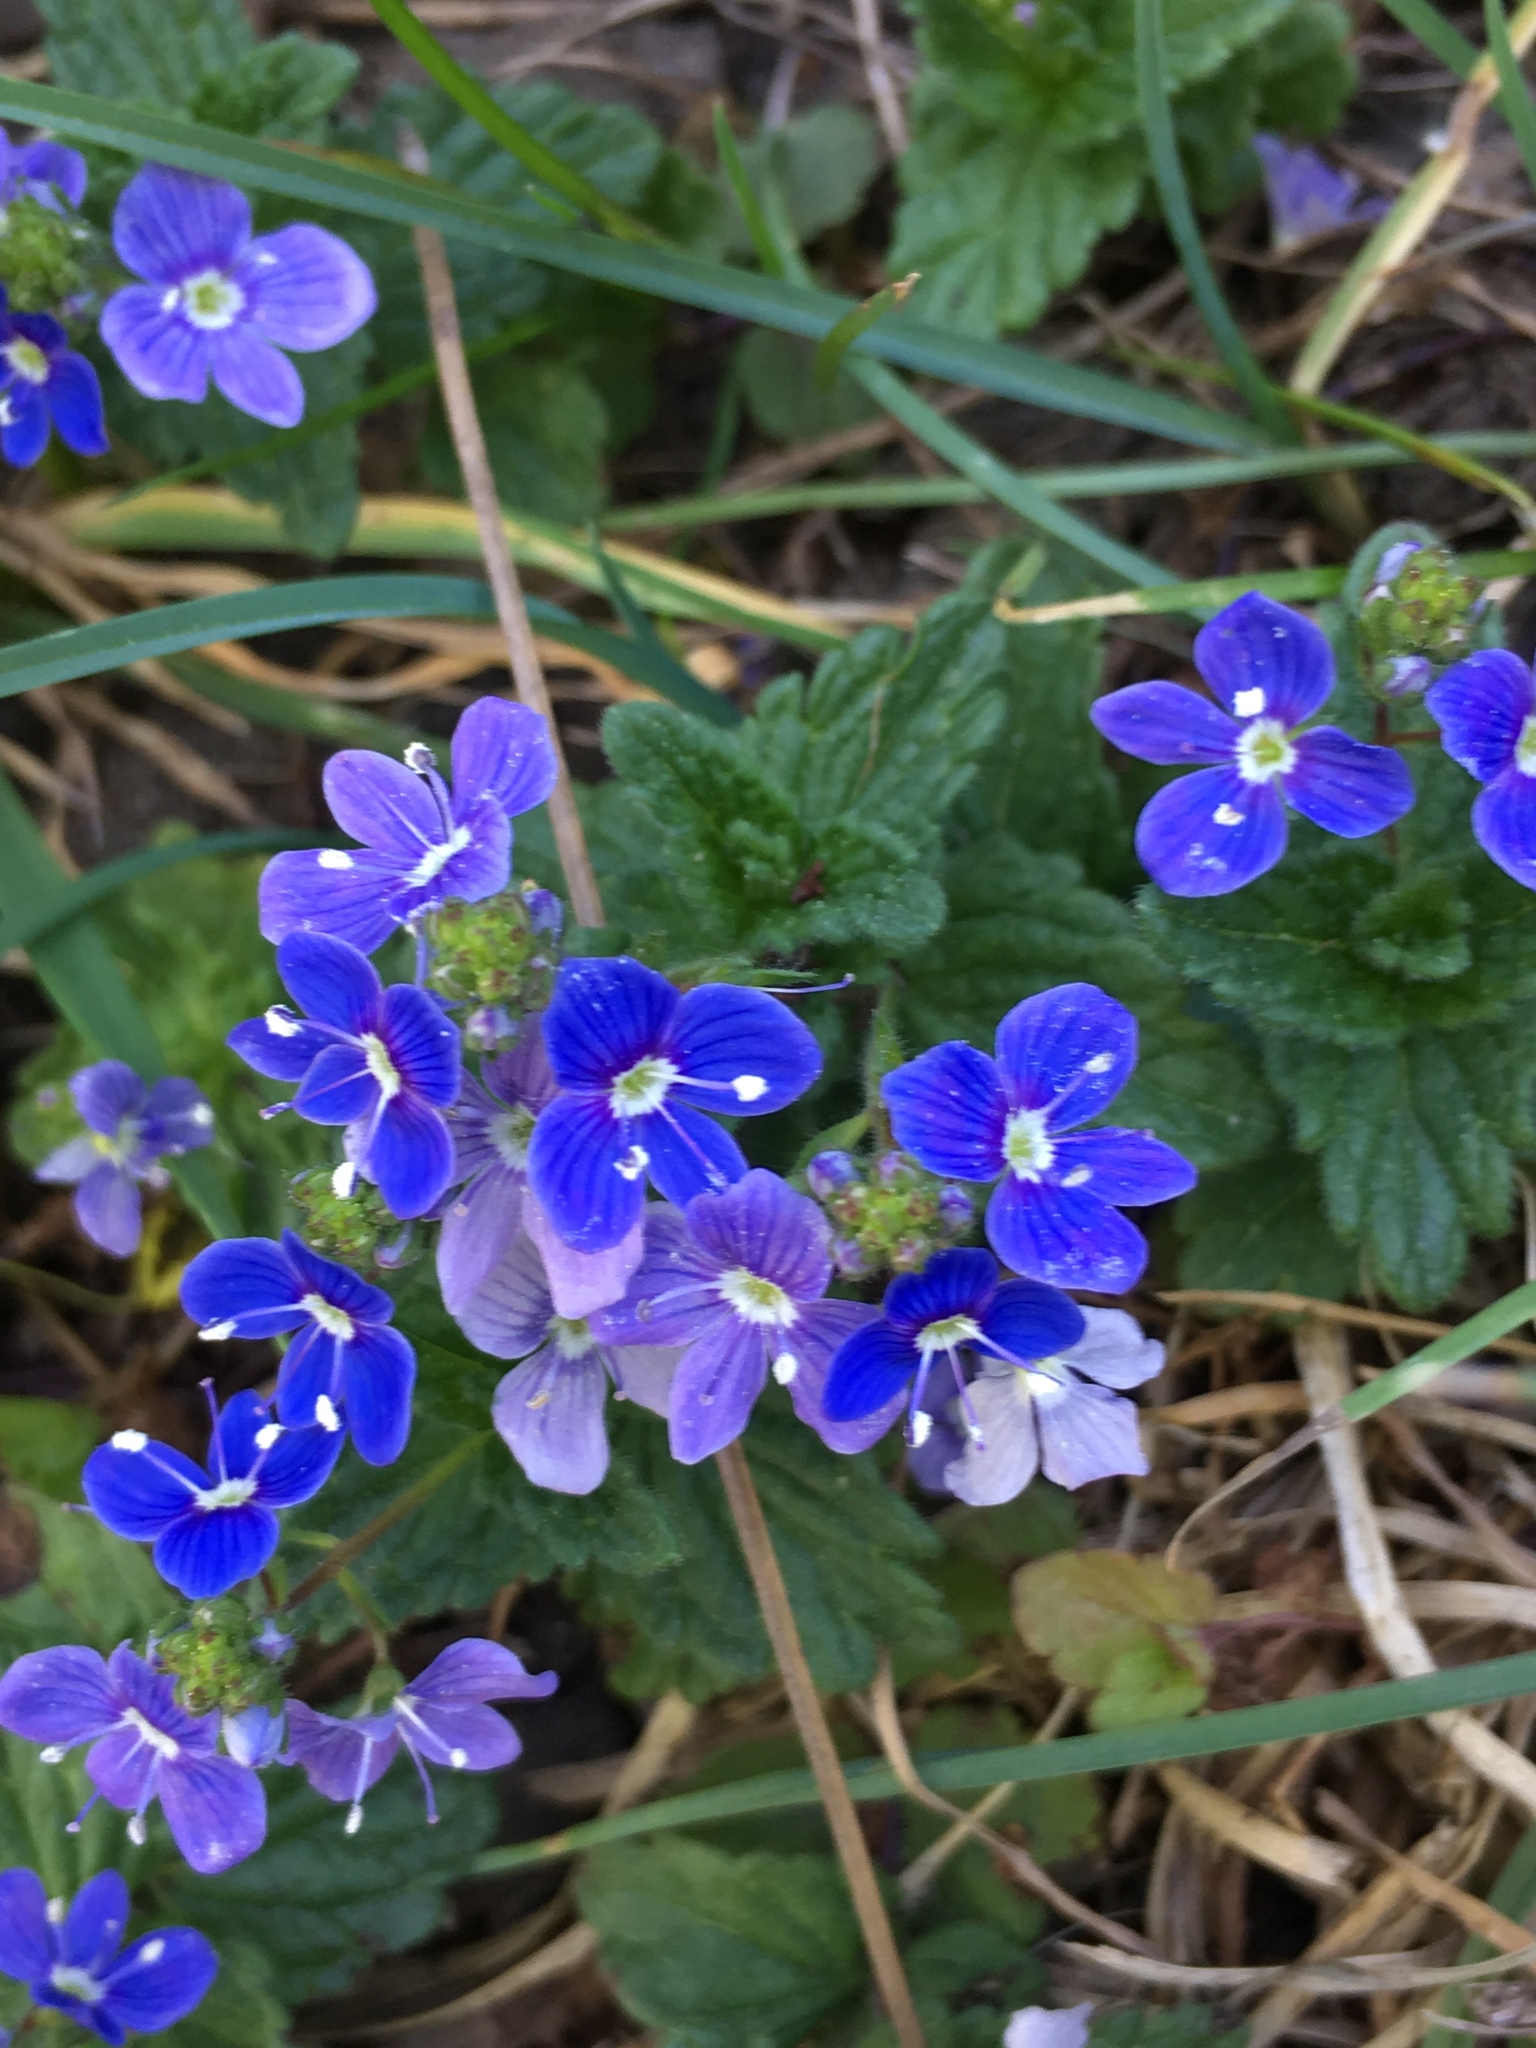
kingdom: Plantae
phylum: Tracheophyta
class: Magnoliopsida
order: Lamiales
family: Plantaginaceae
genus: Veronica
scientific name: Veronica chamaedrys
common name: Germander speedwell
